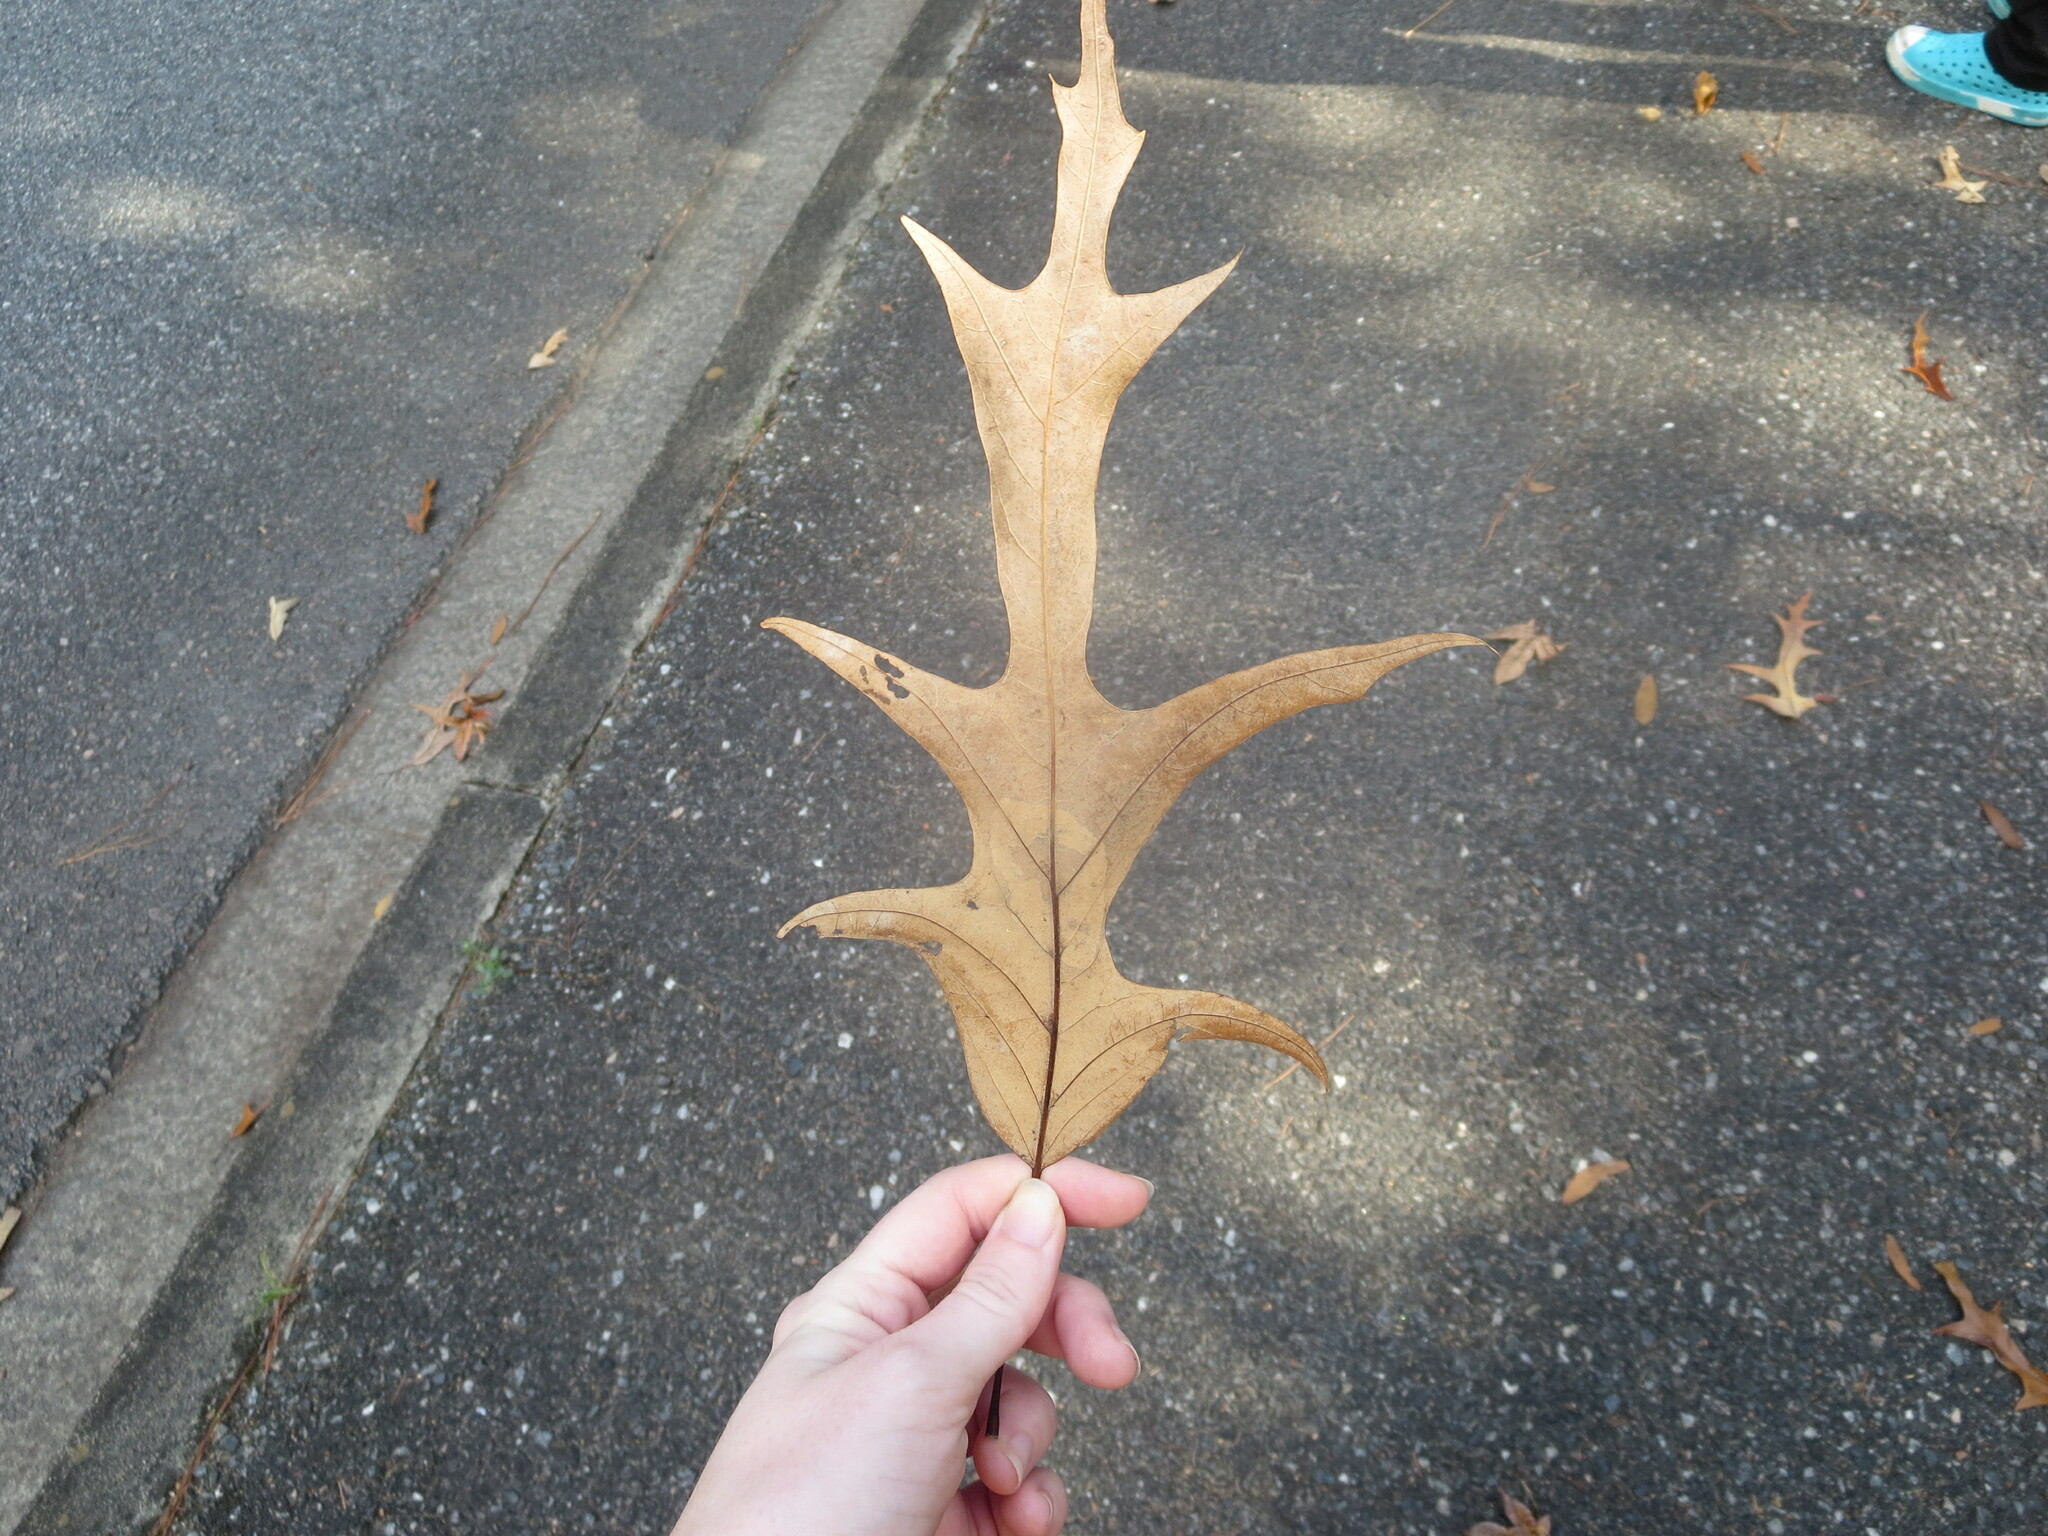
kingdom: Plantae
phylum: Tracheophyta
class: Magnoliopsida
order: Fagales
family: Fagaceae
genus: Quercus
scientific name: Quercus falcata
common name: Southern red oak
